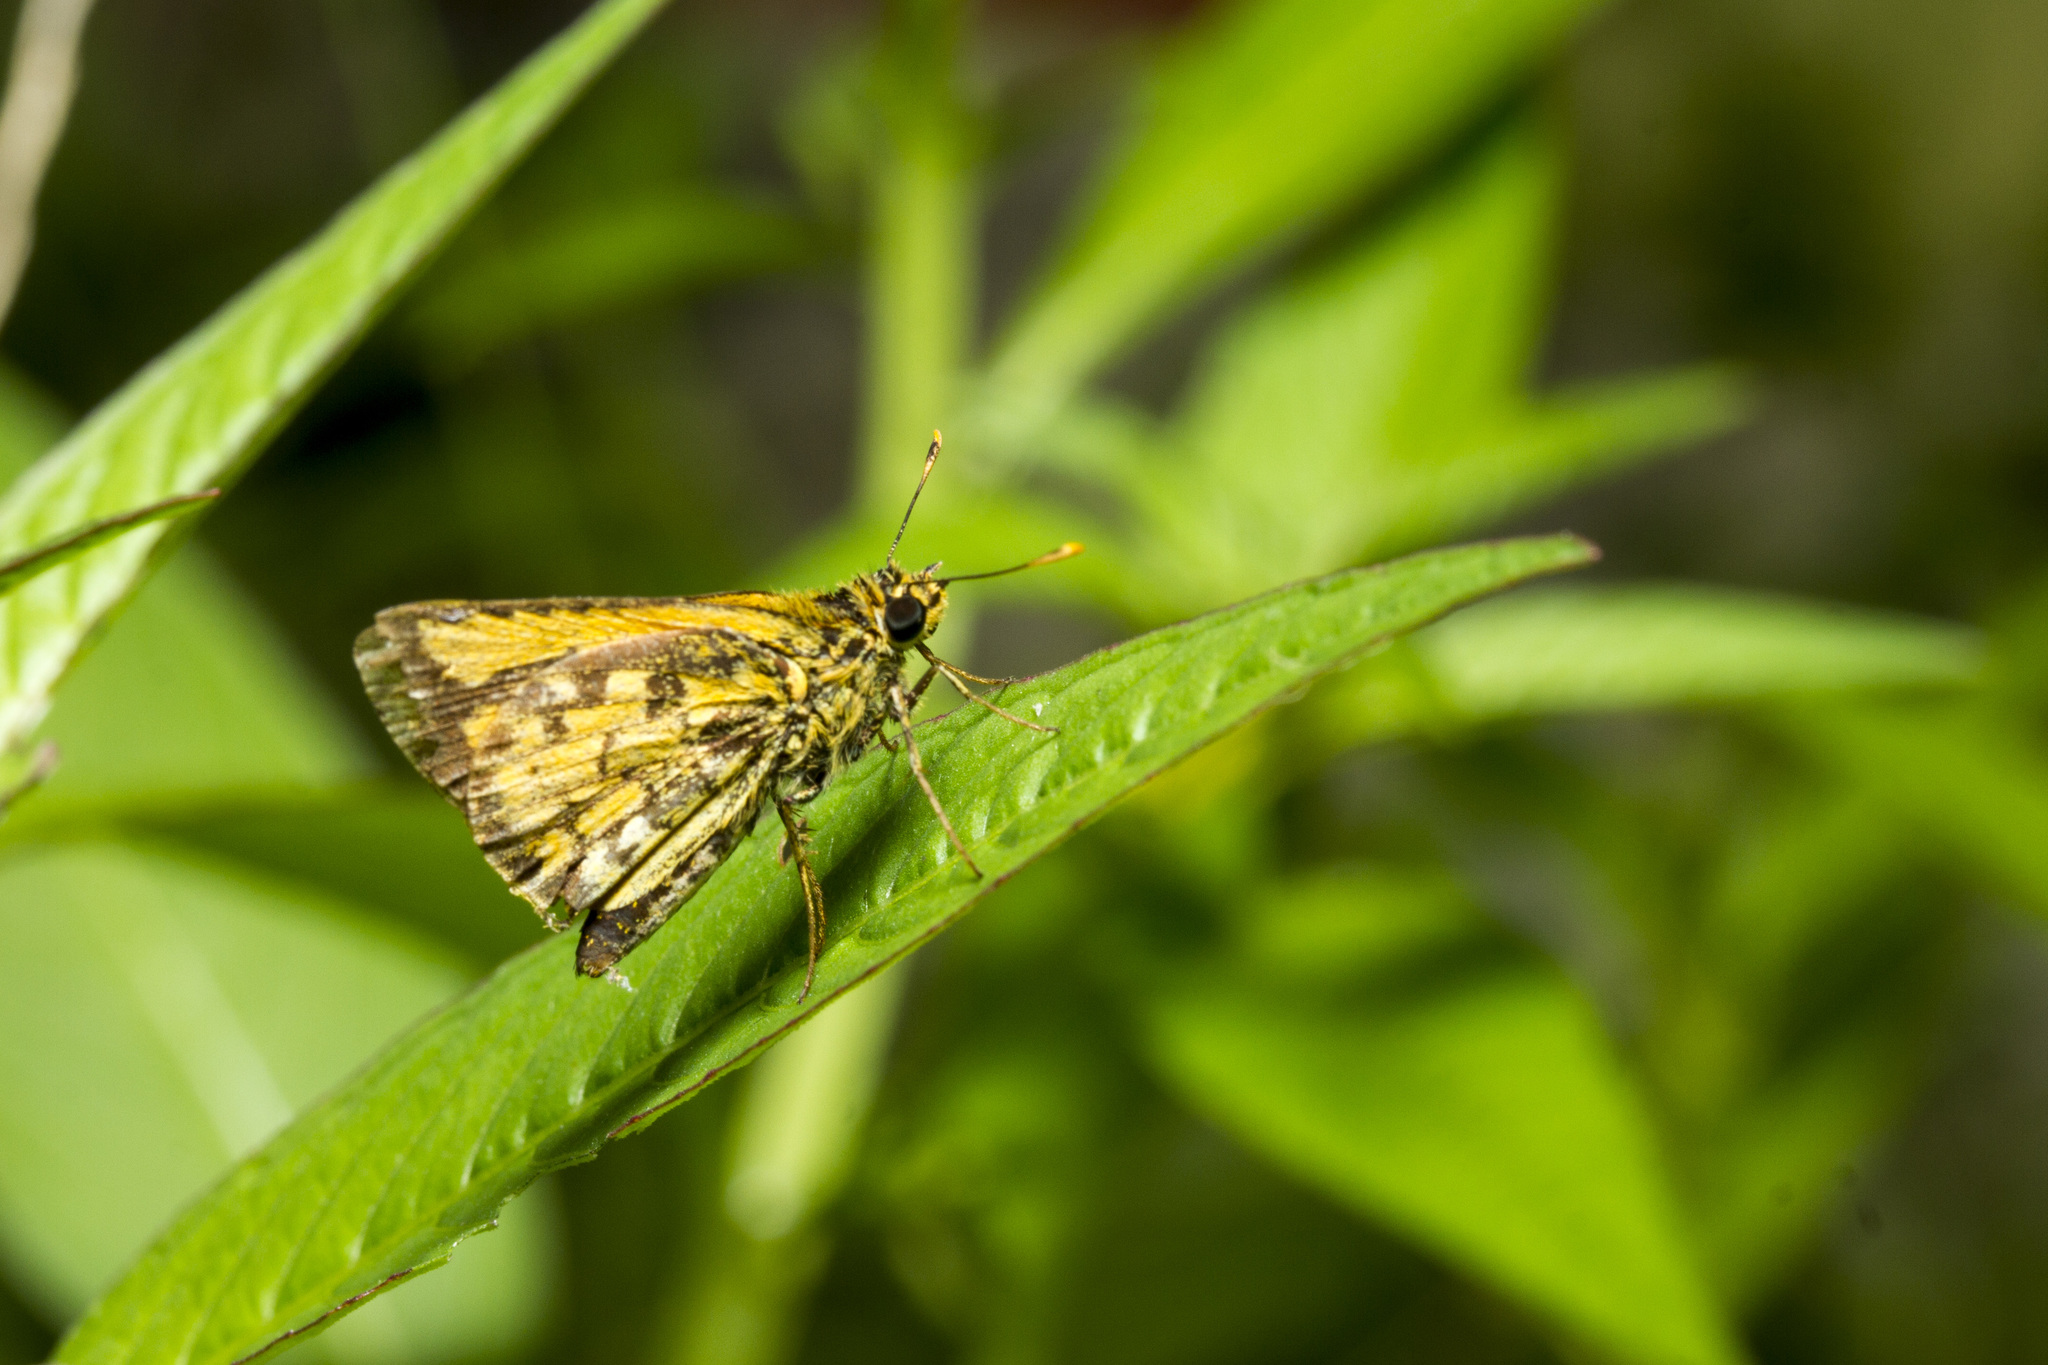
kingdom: Animalia
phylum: Arthropoda
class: Insecta
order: Lepidoptera
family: Hesperiidae
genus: Ampittia
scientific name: Ampittia dioscorides
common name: Common bush hopper
